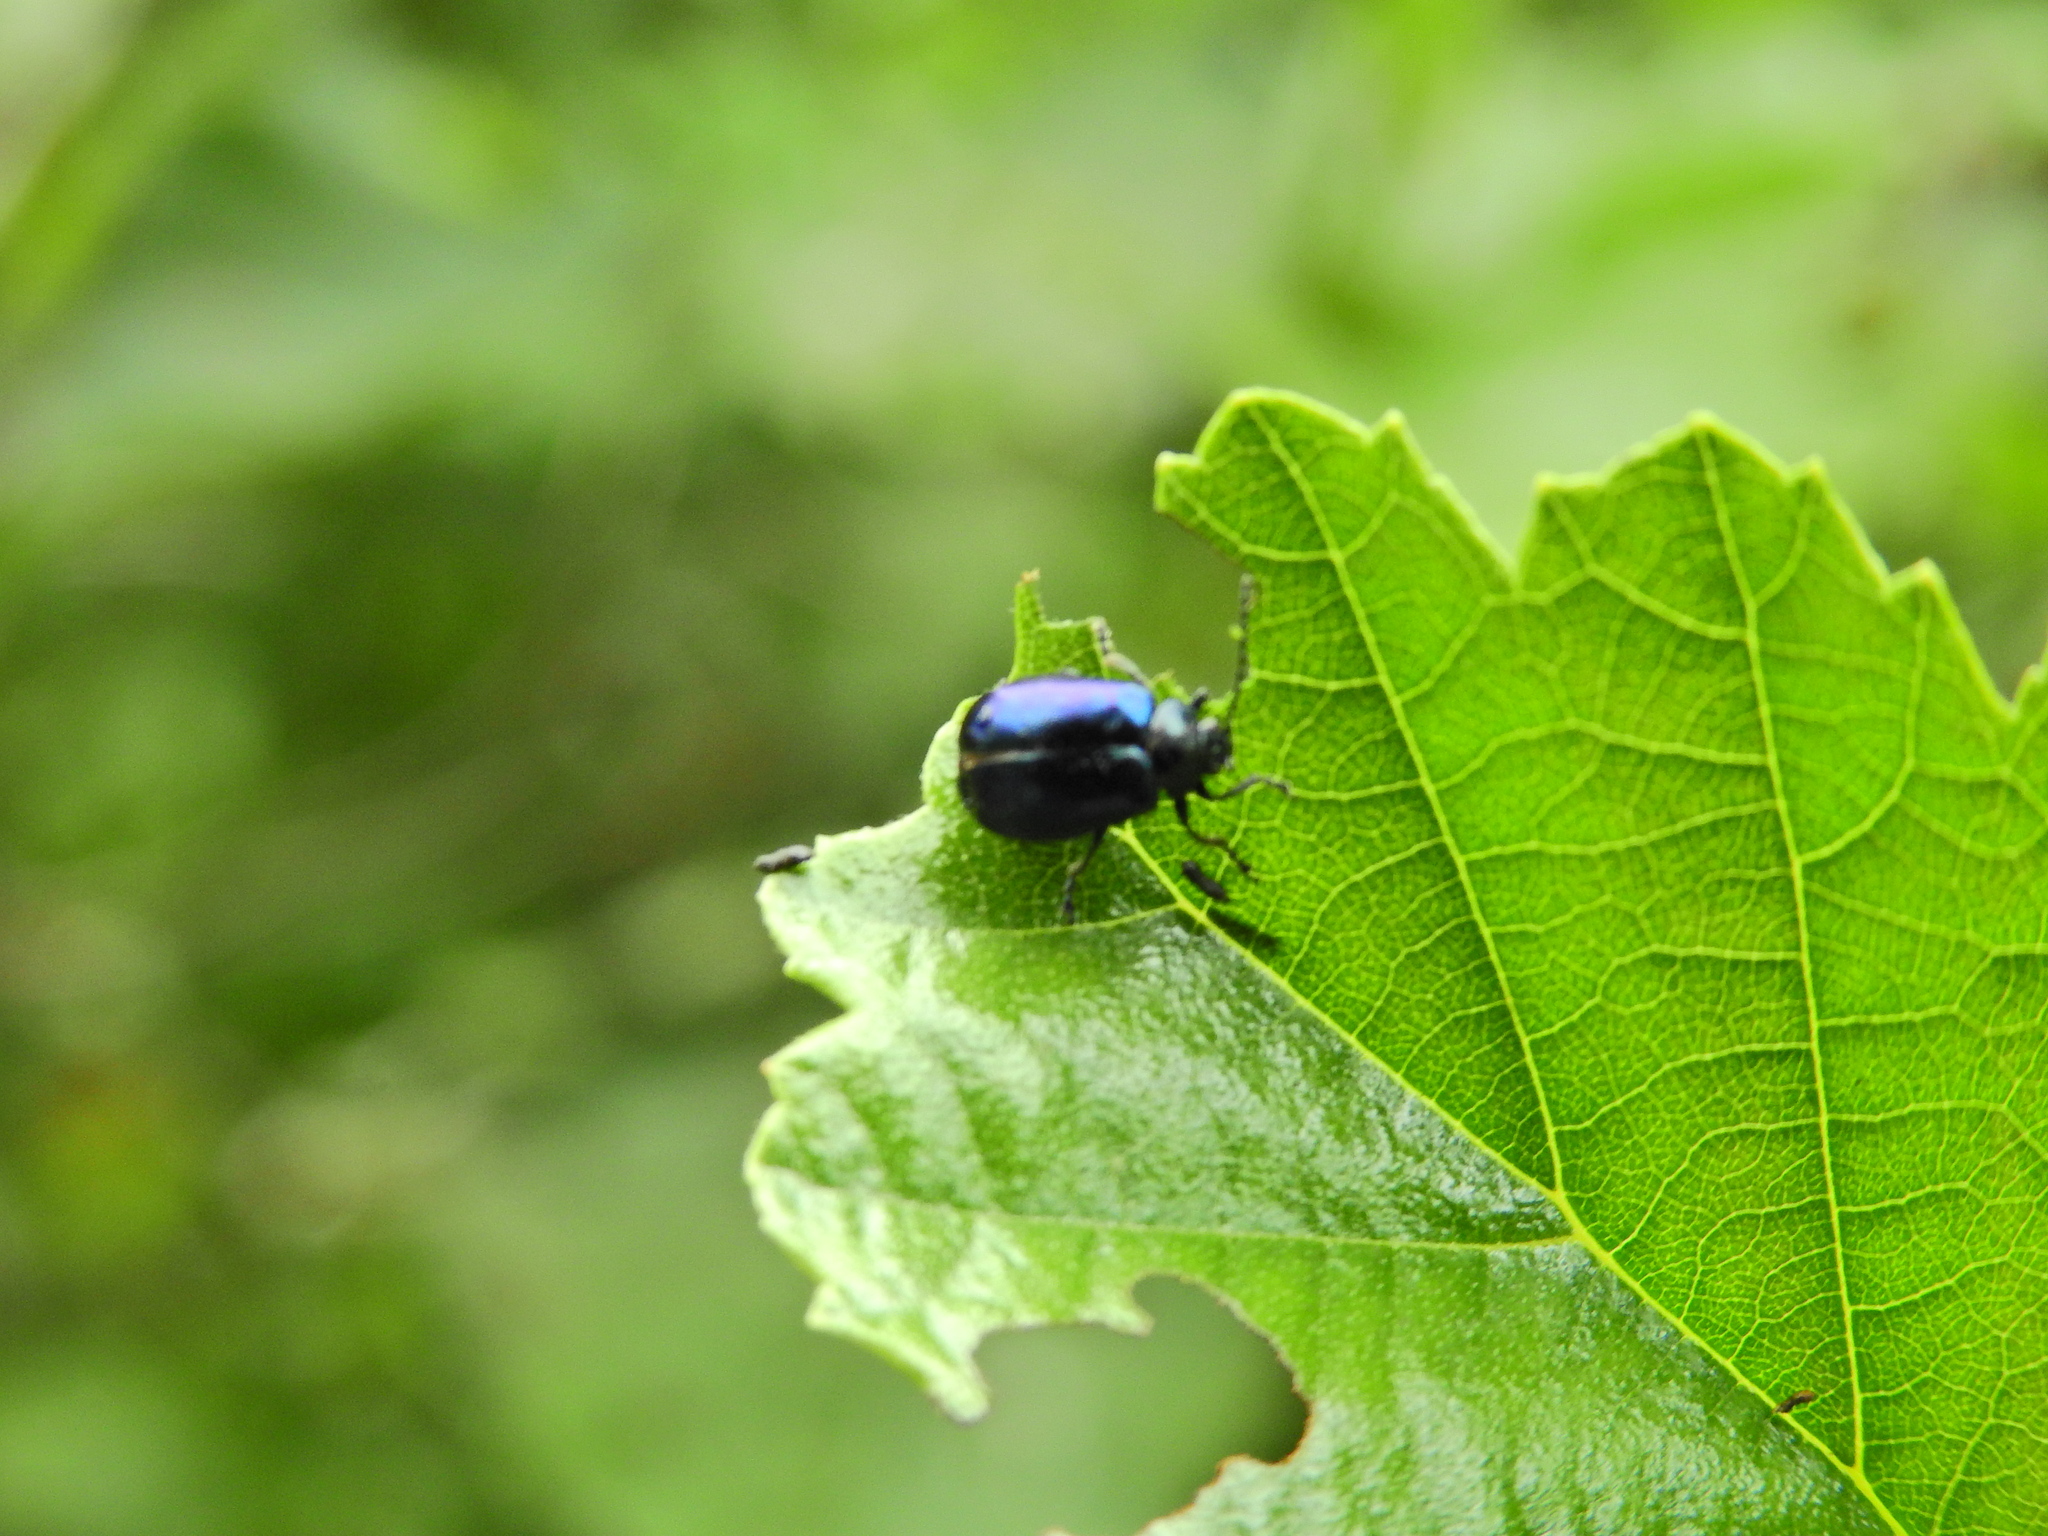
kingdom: Animalia
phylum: Arthropoda
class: Insecta
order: Coleoptera
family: Chrysomelidae
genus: Agelastica
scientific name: Agelastica alni
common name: Alder leaf beetle
